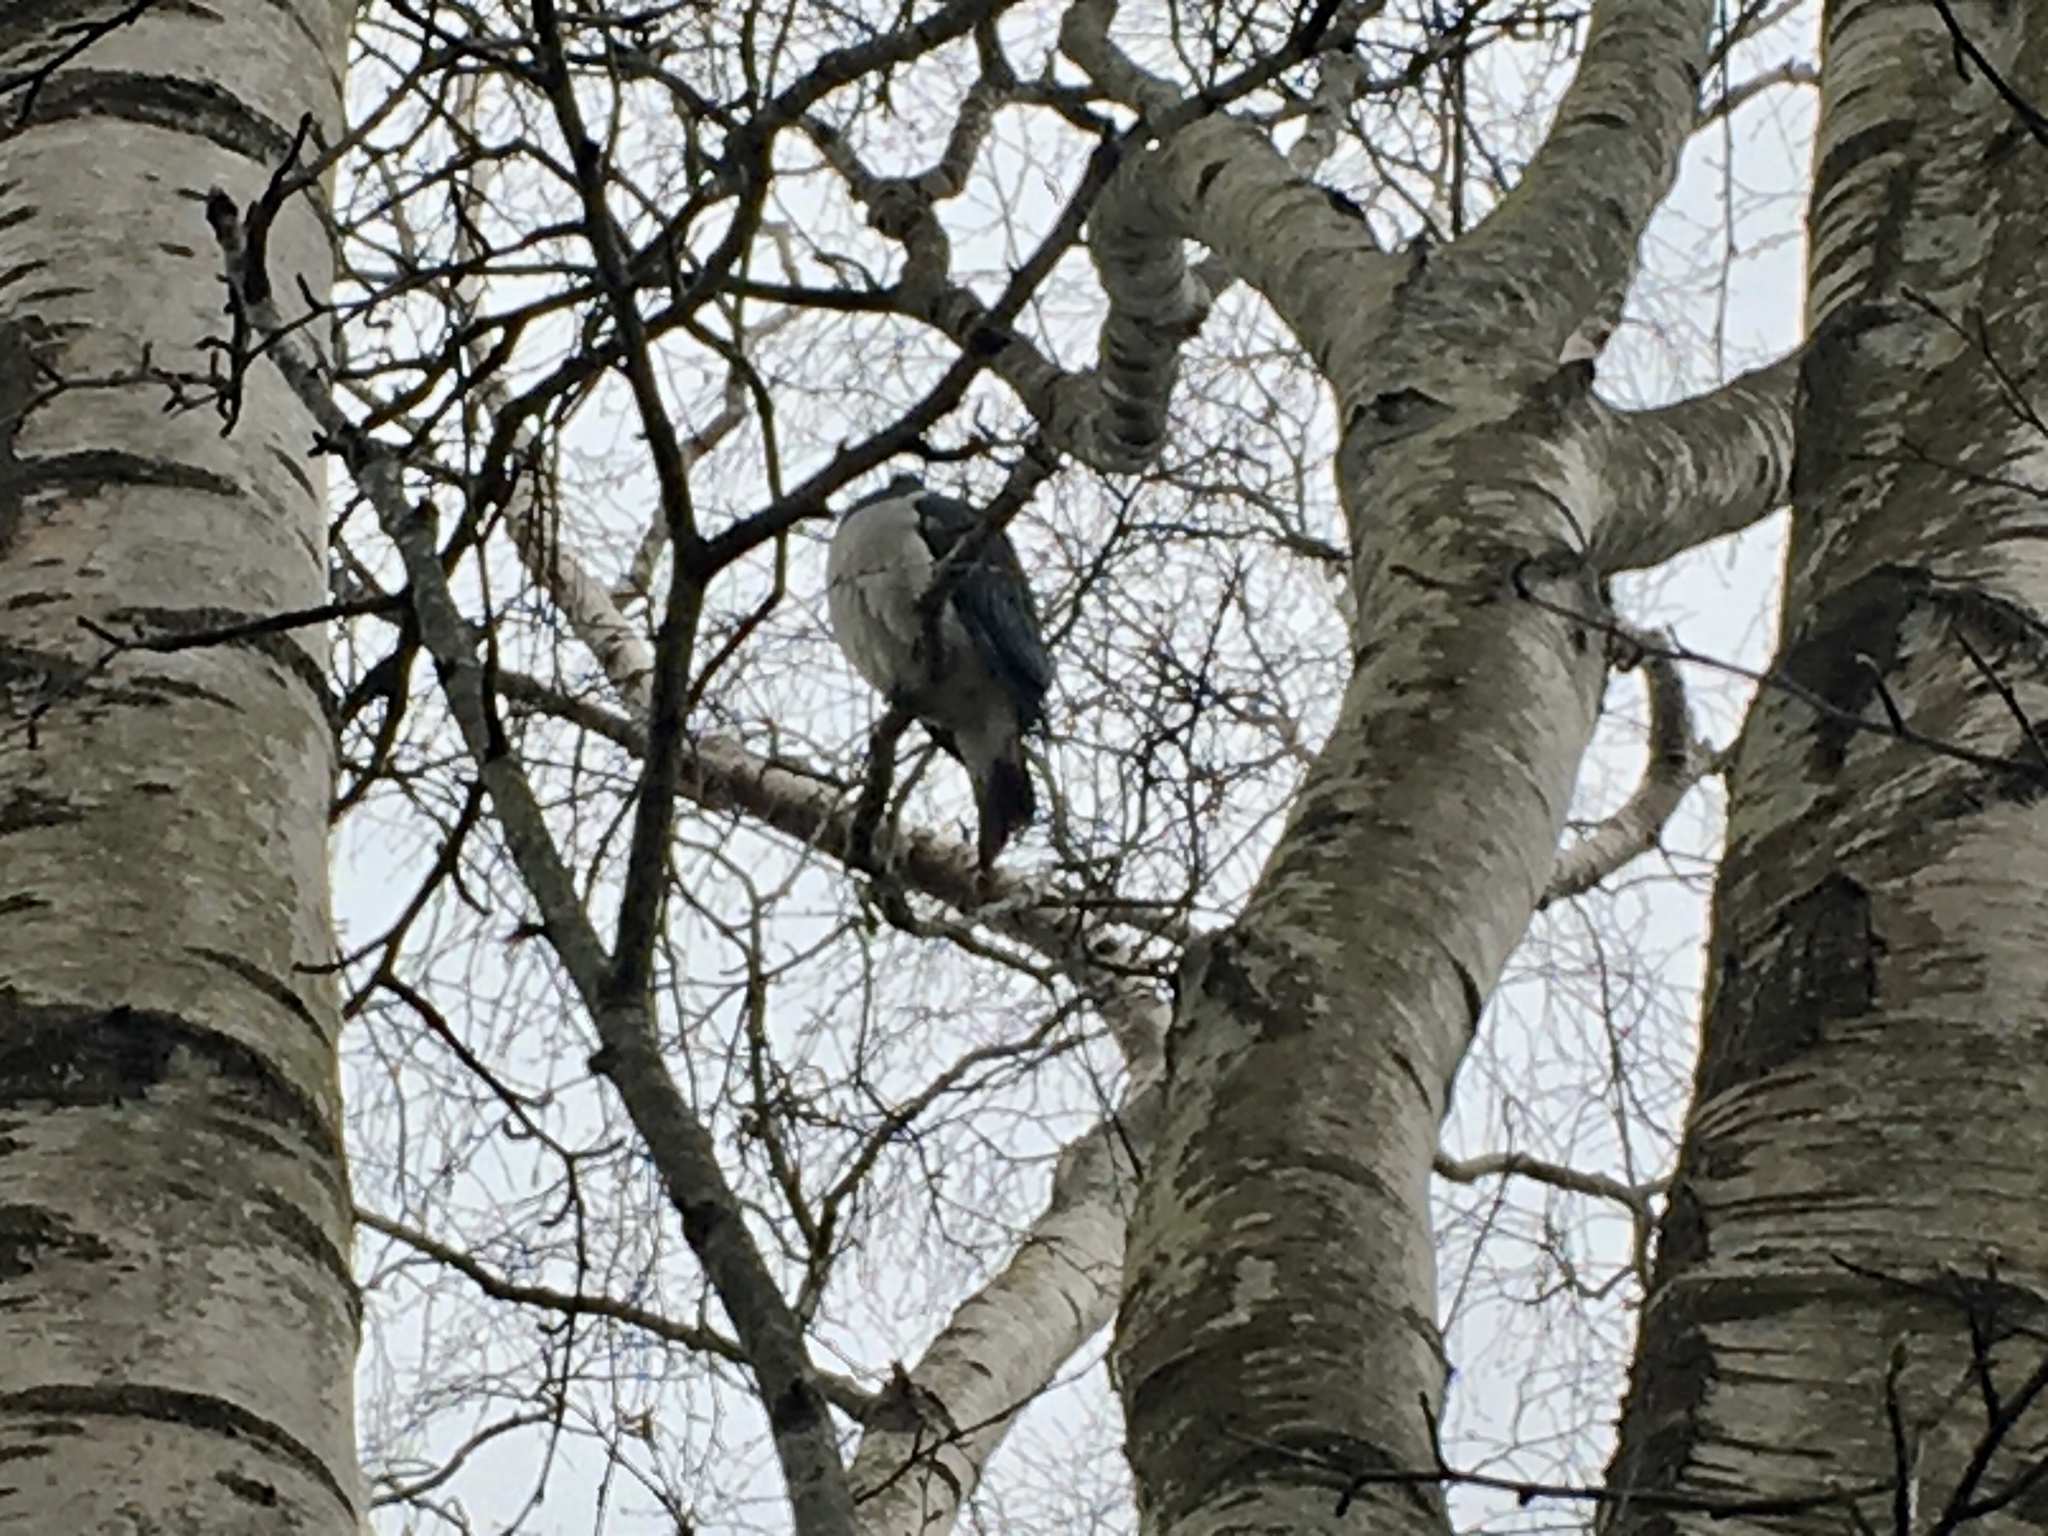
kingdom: Animalia
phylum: Chordata
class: Aves
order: Columbiformes
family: Columbidae
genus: Hemiphaga
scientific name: Hemiphaga novaeseelandiae
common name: New zealand pigeon
